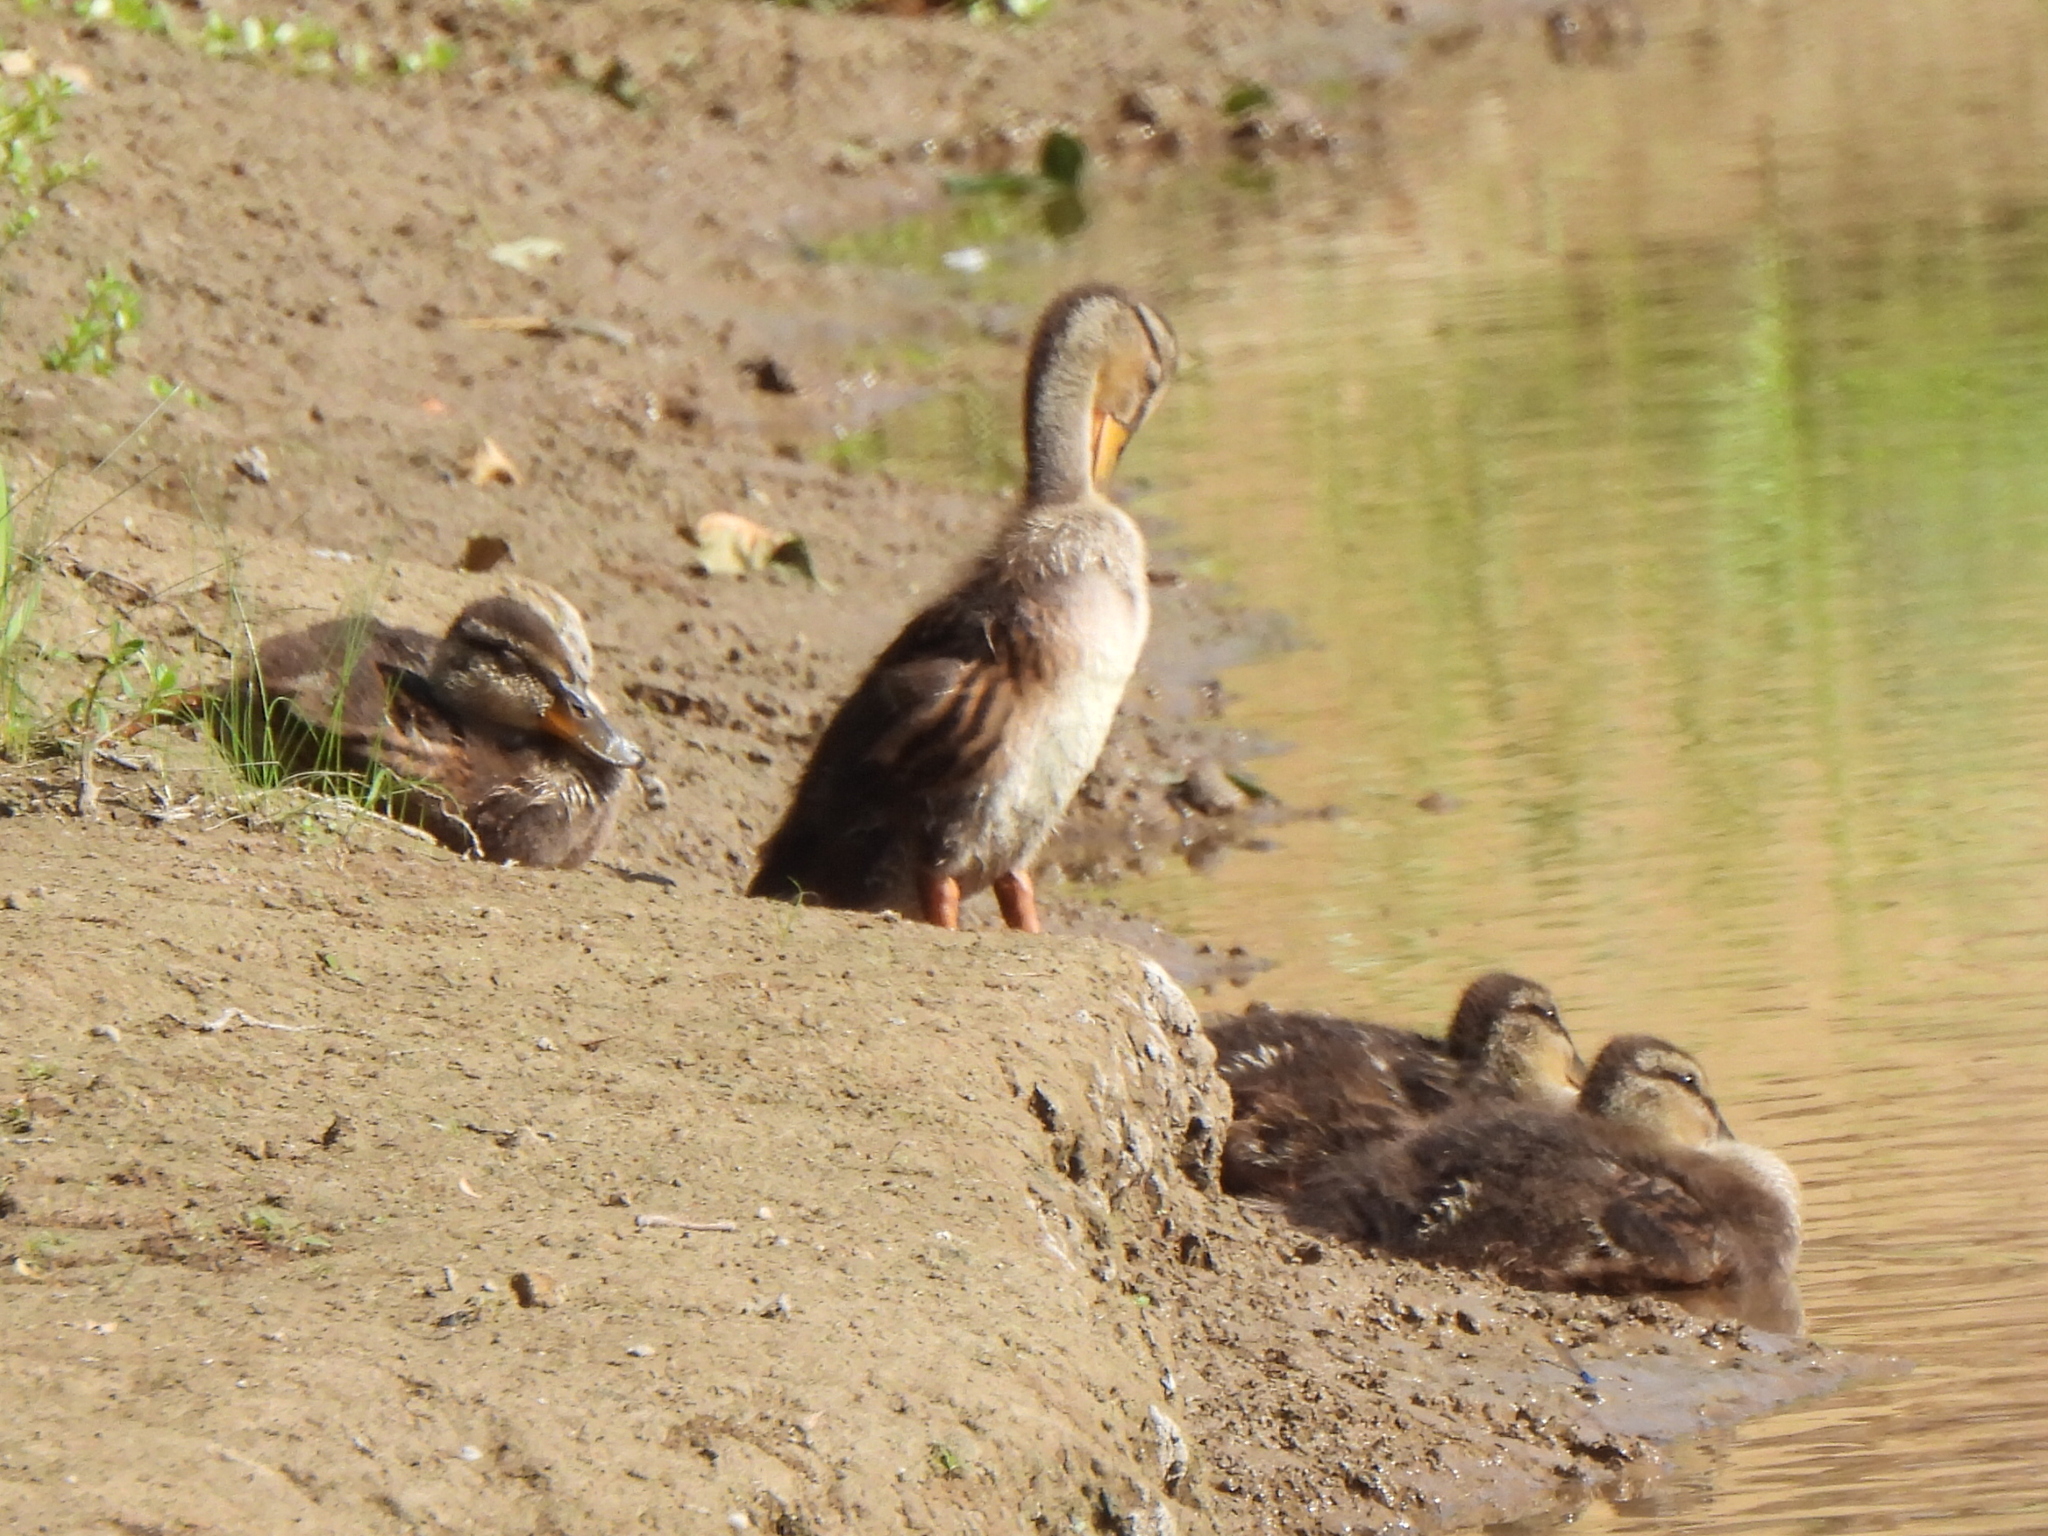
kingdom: Animalia
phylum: Chordata
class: Aves
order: Anseriformes
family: Anatidae
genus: Anas
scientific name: Anas platyrhynchos
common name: Mallard
